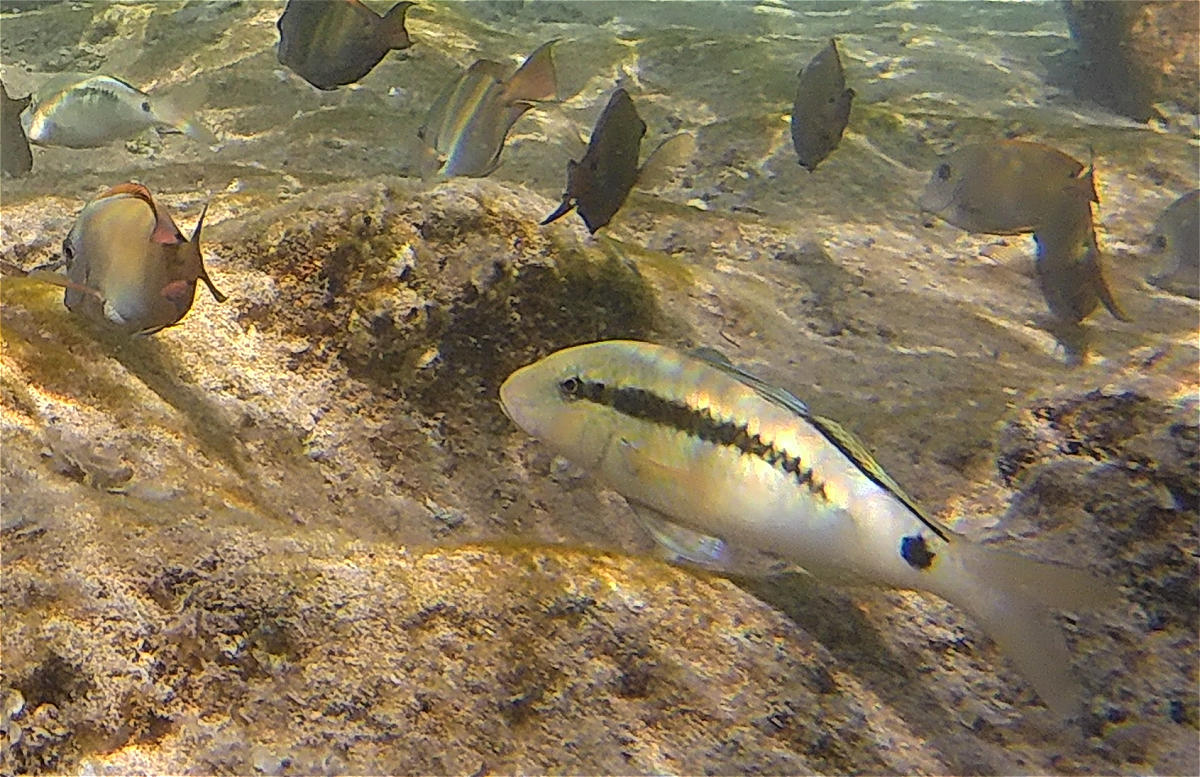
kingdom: Animalia
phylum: Chordata
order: Perciformes
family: Mullidae
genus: Parupeneus
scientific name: Parupeneus macronemus
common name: Long-barbel goatfish
